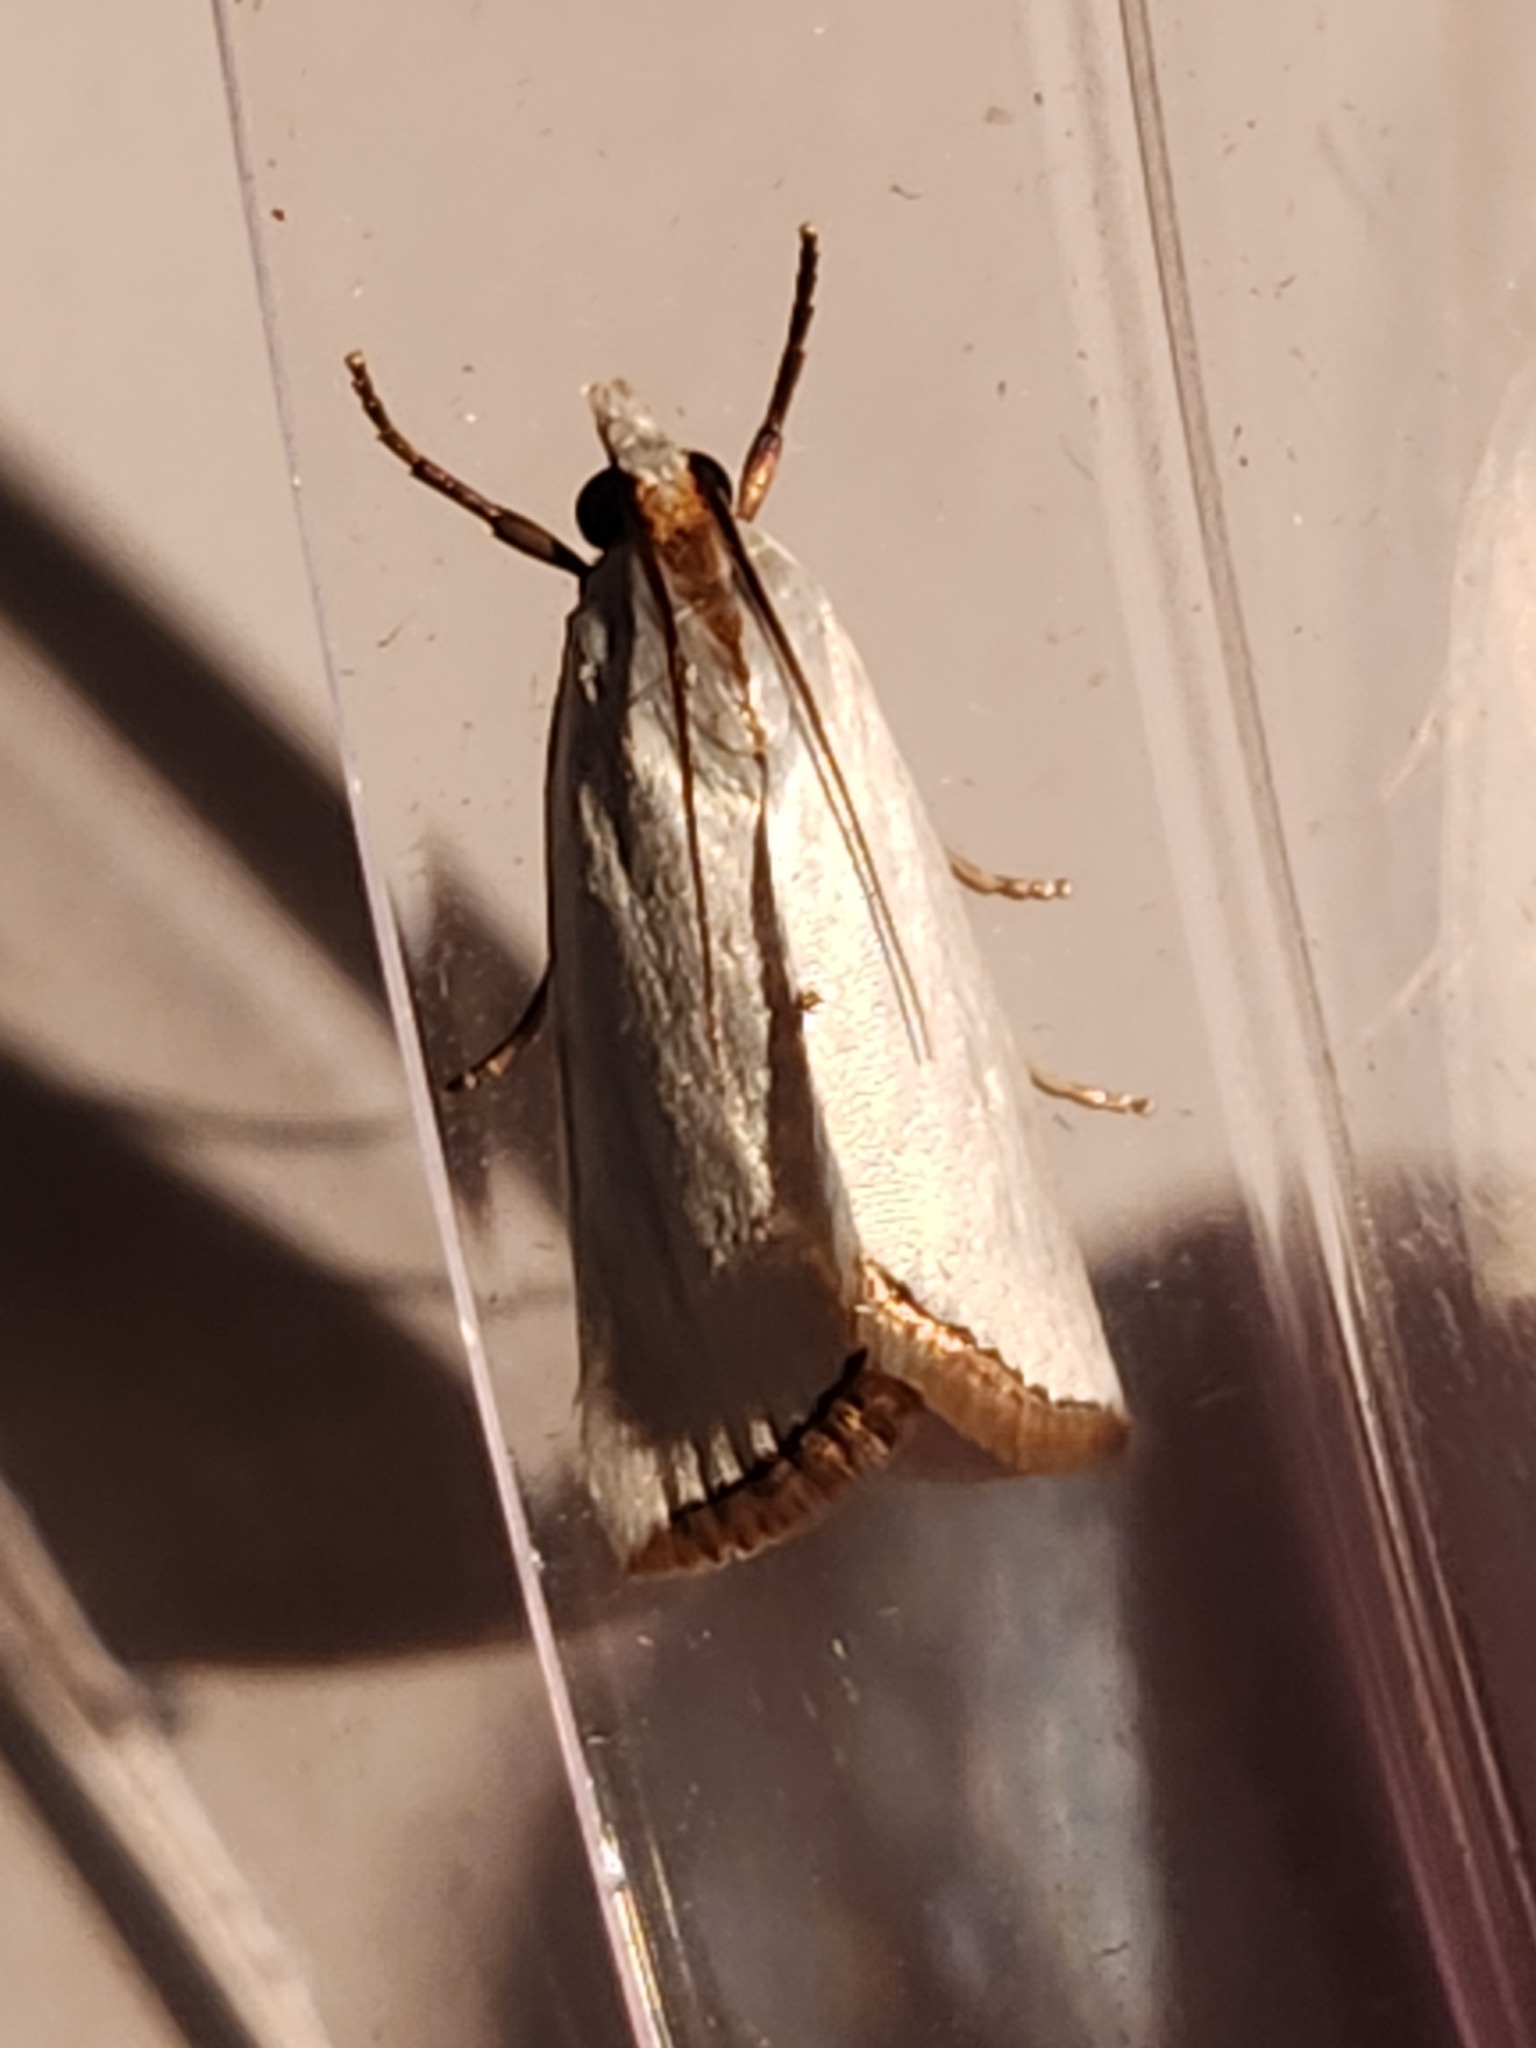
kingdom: Animalia
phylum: Arthropoda
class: Insecta
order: Lepidoptera
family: Crambidae
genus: Argyria
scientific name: Argyria nivalis
